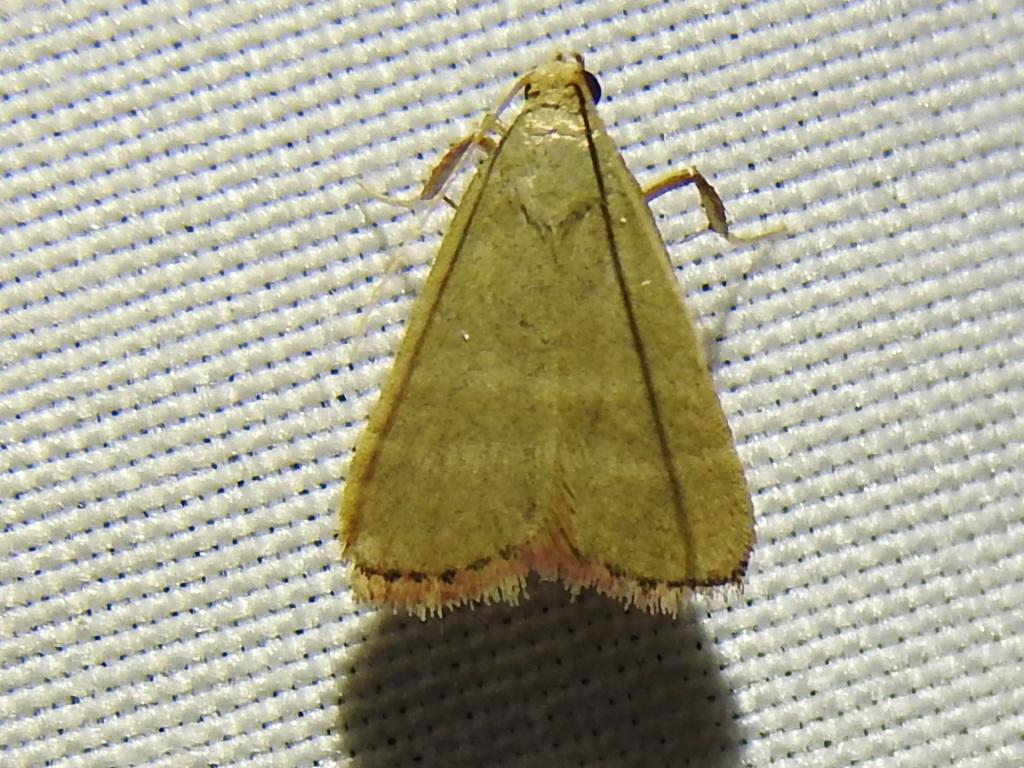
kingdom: Animalia
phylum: Arthropoda
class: Insecta
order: Lepidoptera
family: Pyralidae
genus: Arta
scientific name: Arta olivalis
